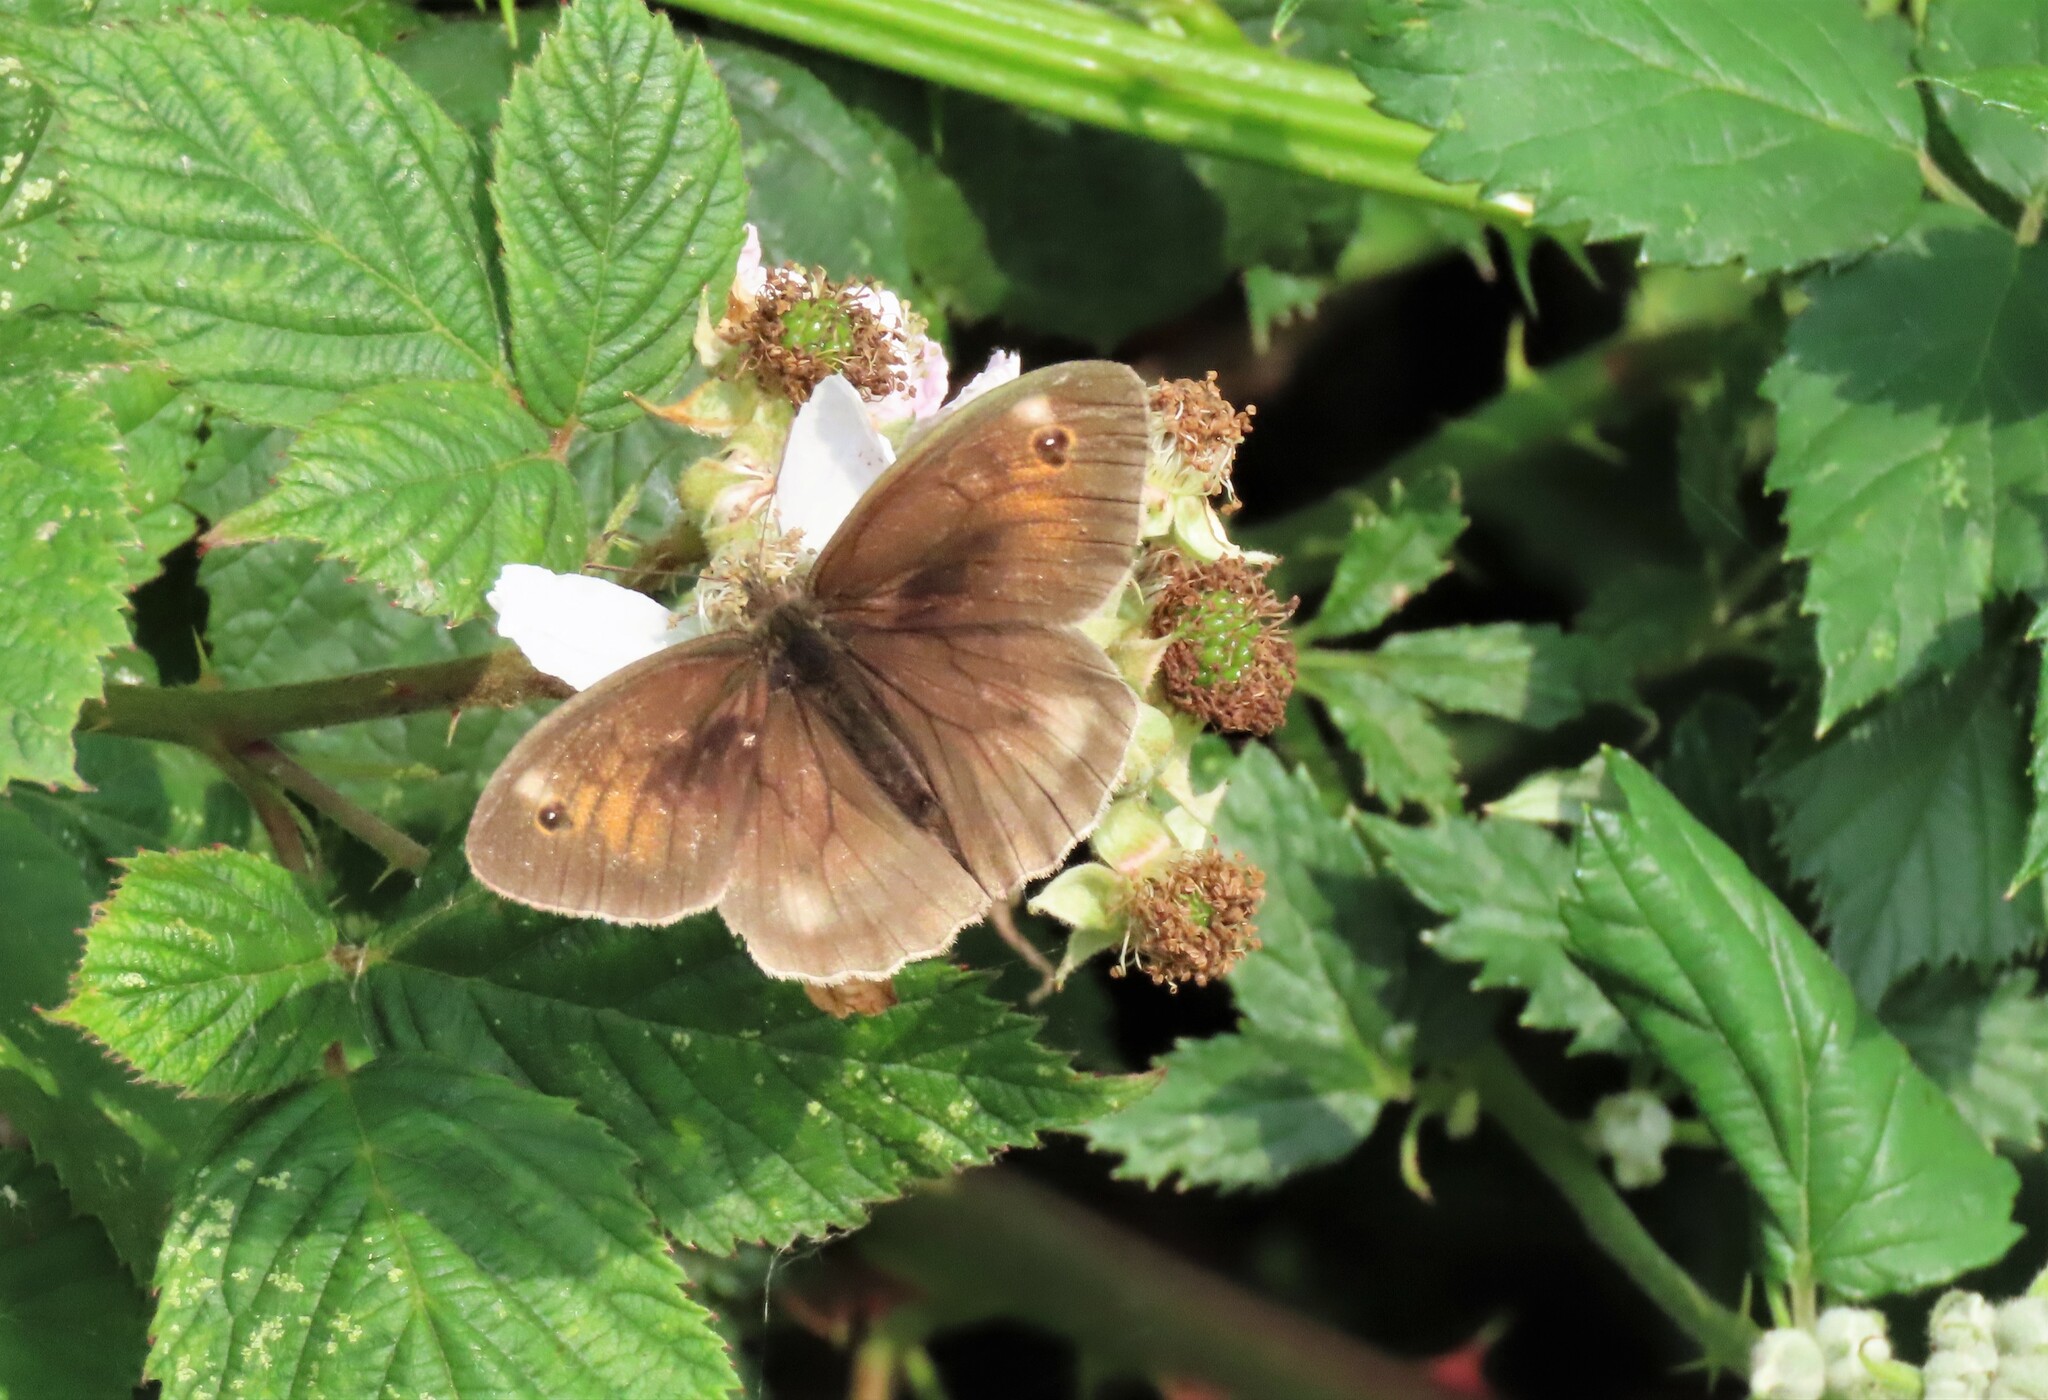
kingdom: Animalia
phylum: Arthropoda
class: Insecta
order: Lepidoptera
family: Nymphalidae
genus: Maniola
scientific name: Maniola jurtina
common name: Meadow brown
